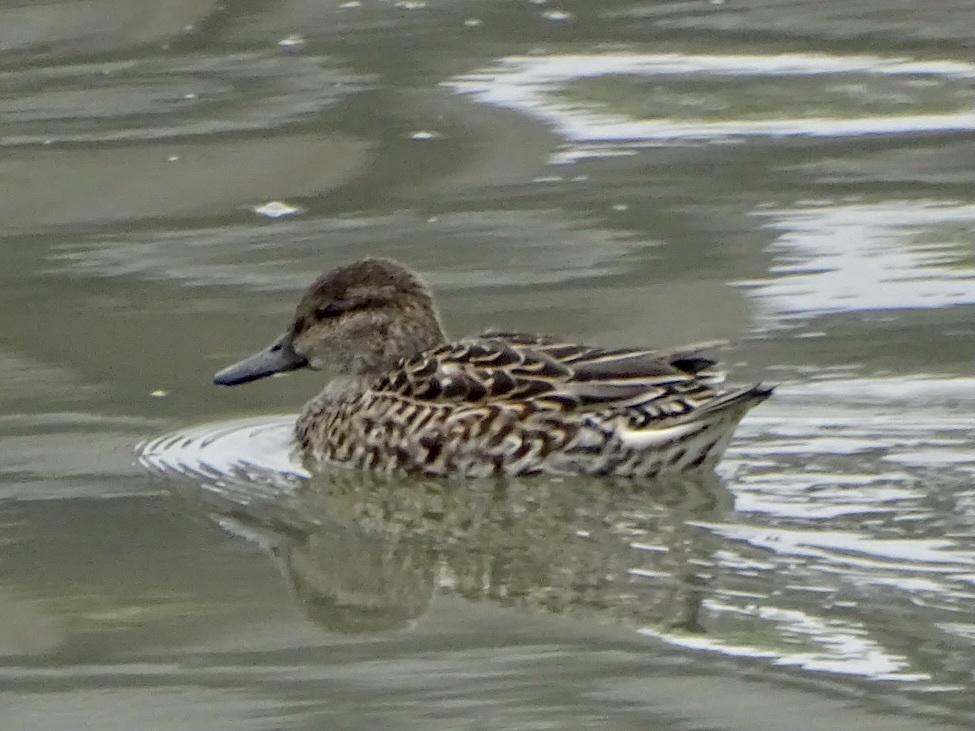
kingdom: Animalia
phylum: Chordata
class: Aves
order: Anseriformes
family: Anatidae
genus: Anas
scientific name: Anas crecca
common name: Eurasian teal
